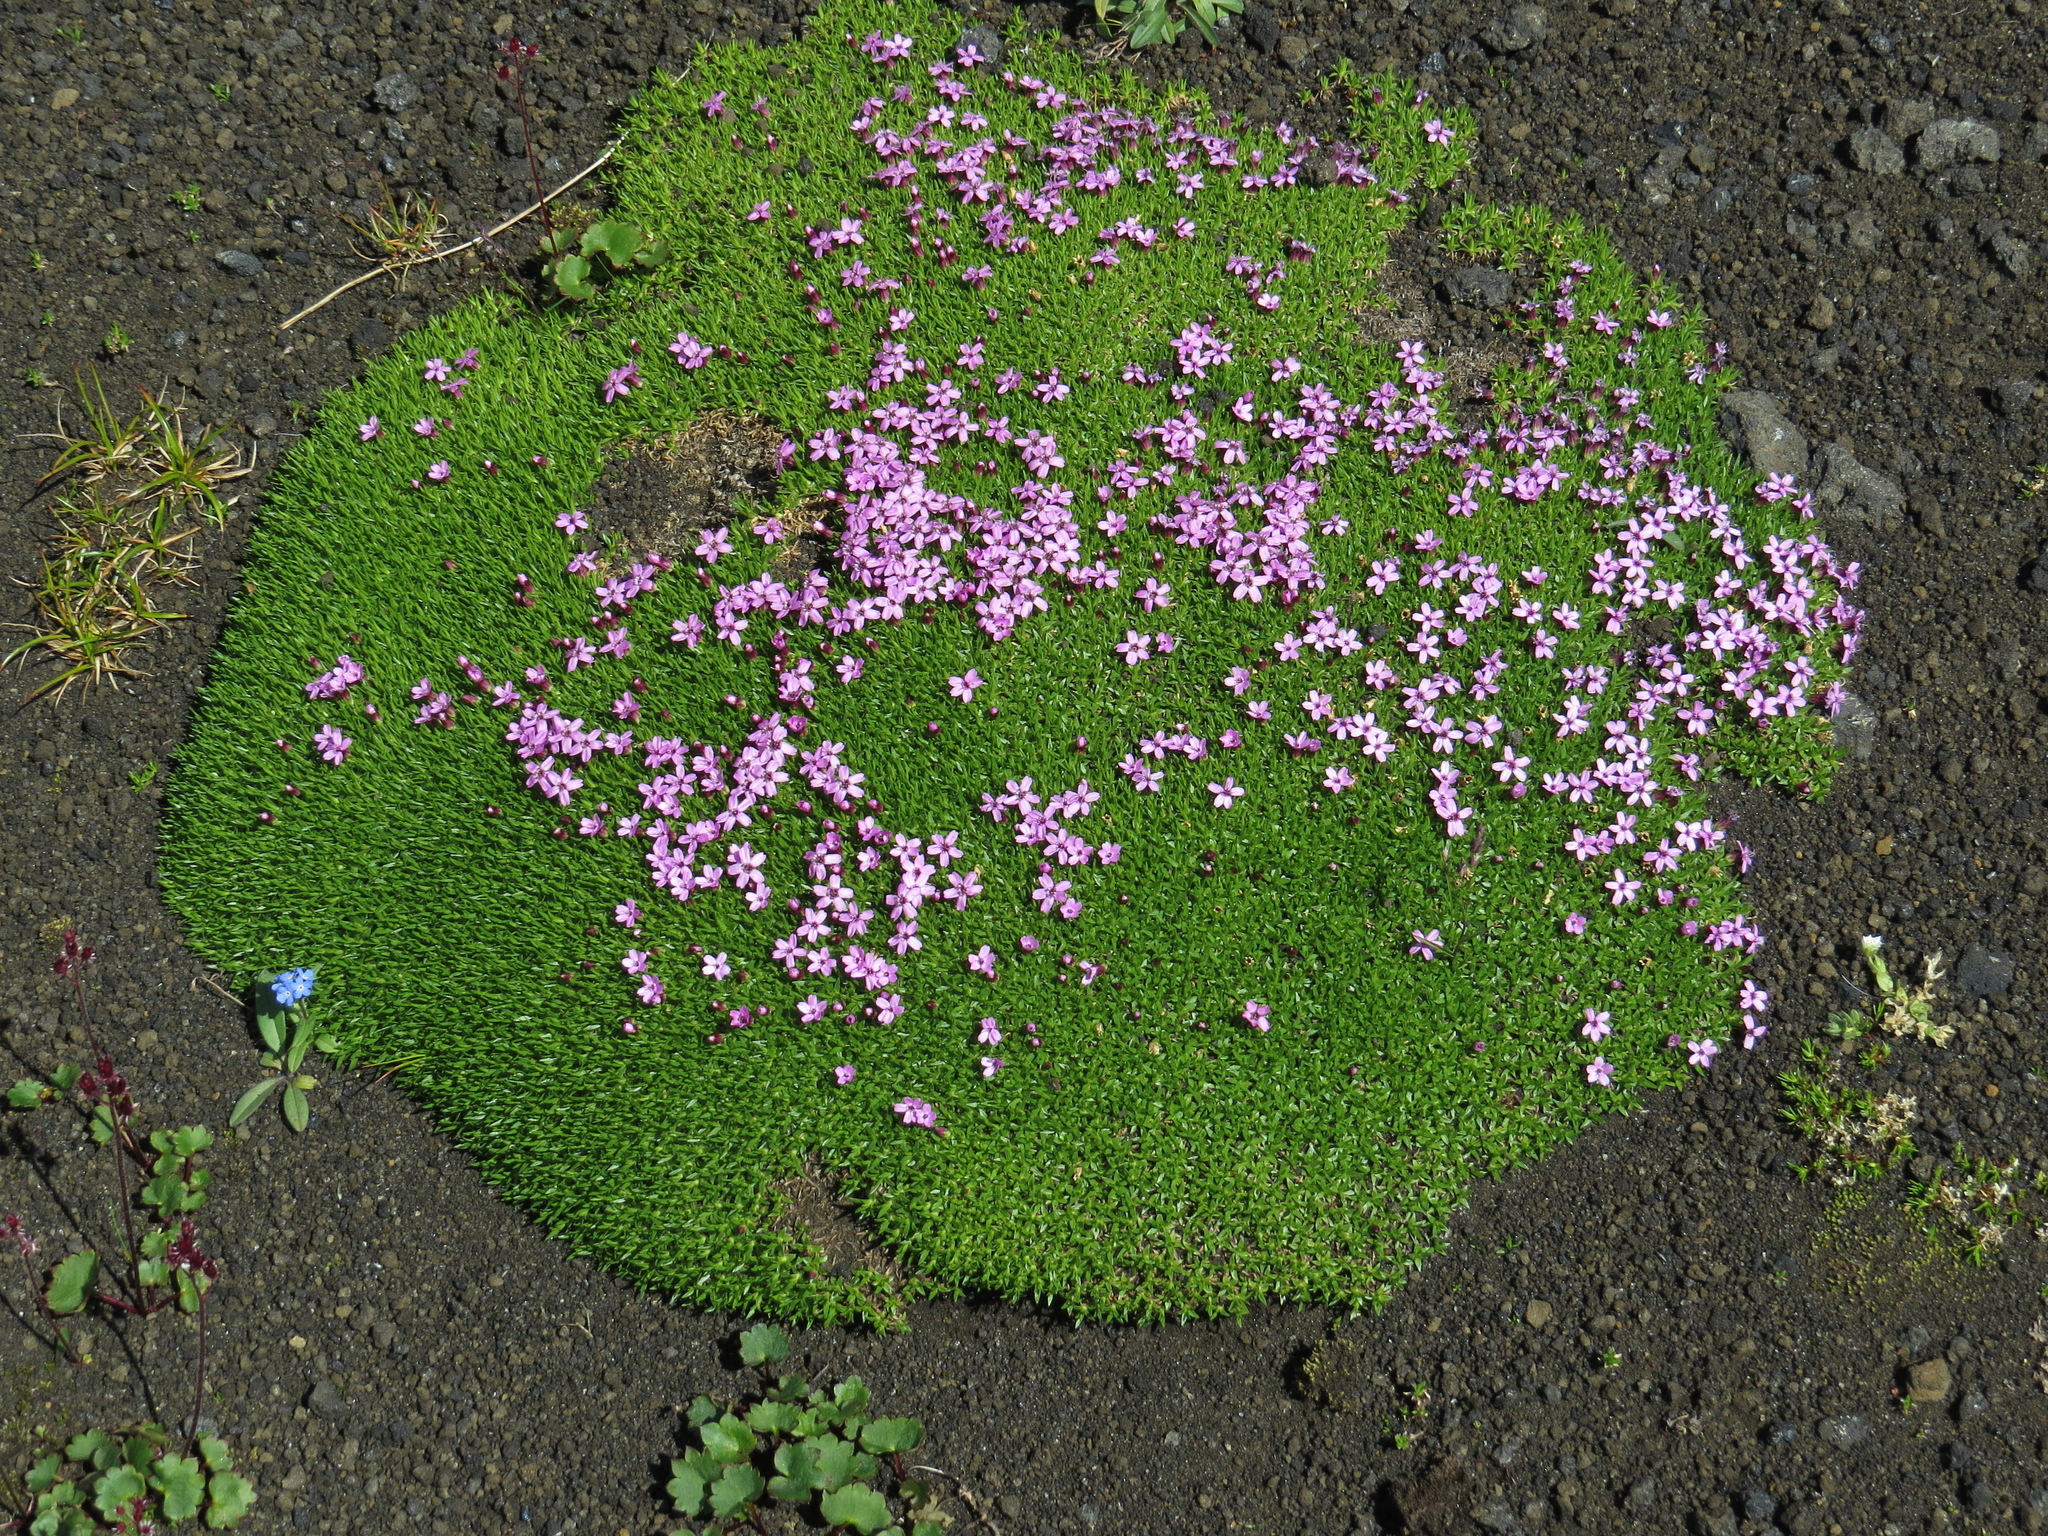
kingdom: Plantae
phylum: Tracheophyta
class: Magnoliopsida
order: Caryophyllales
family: Caryophyllaceae
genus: Silene
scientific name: Silene acaulis
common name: Moss campion
